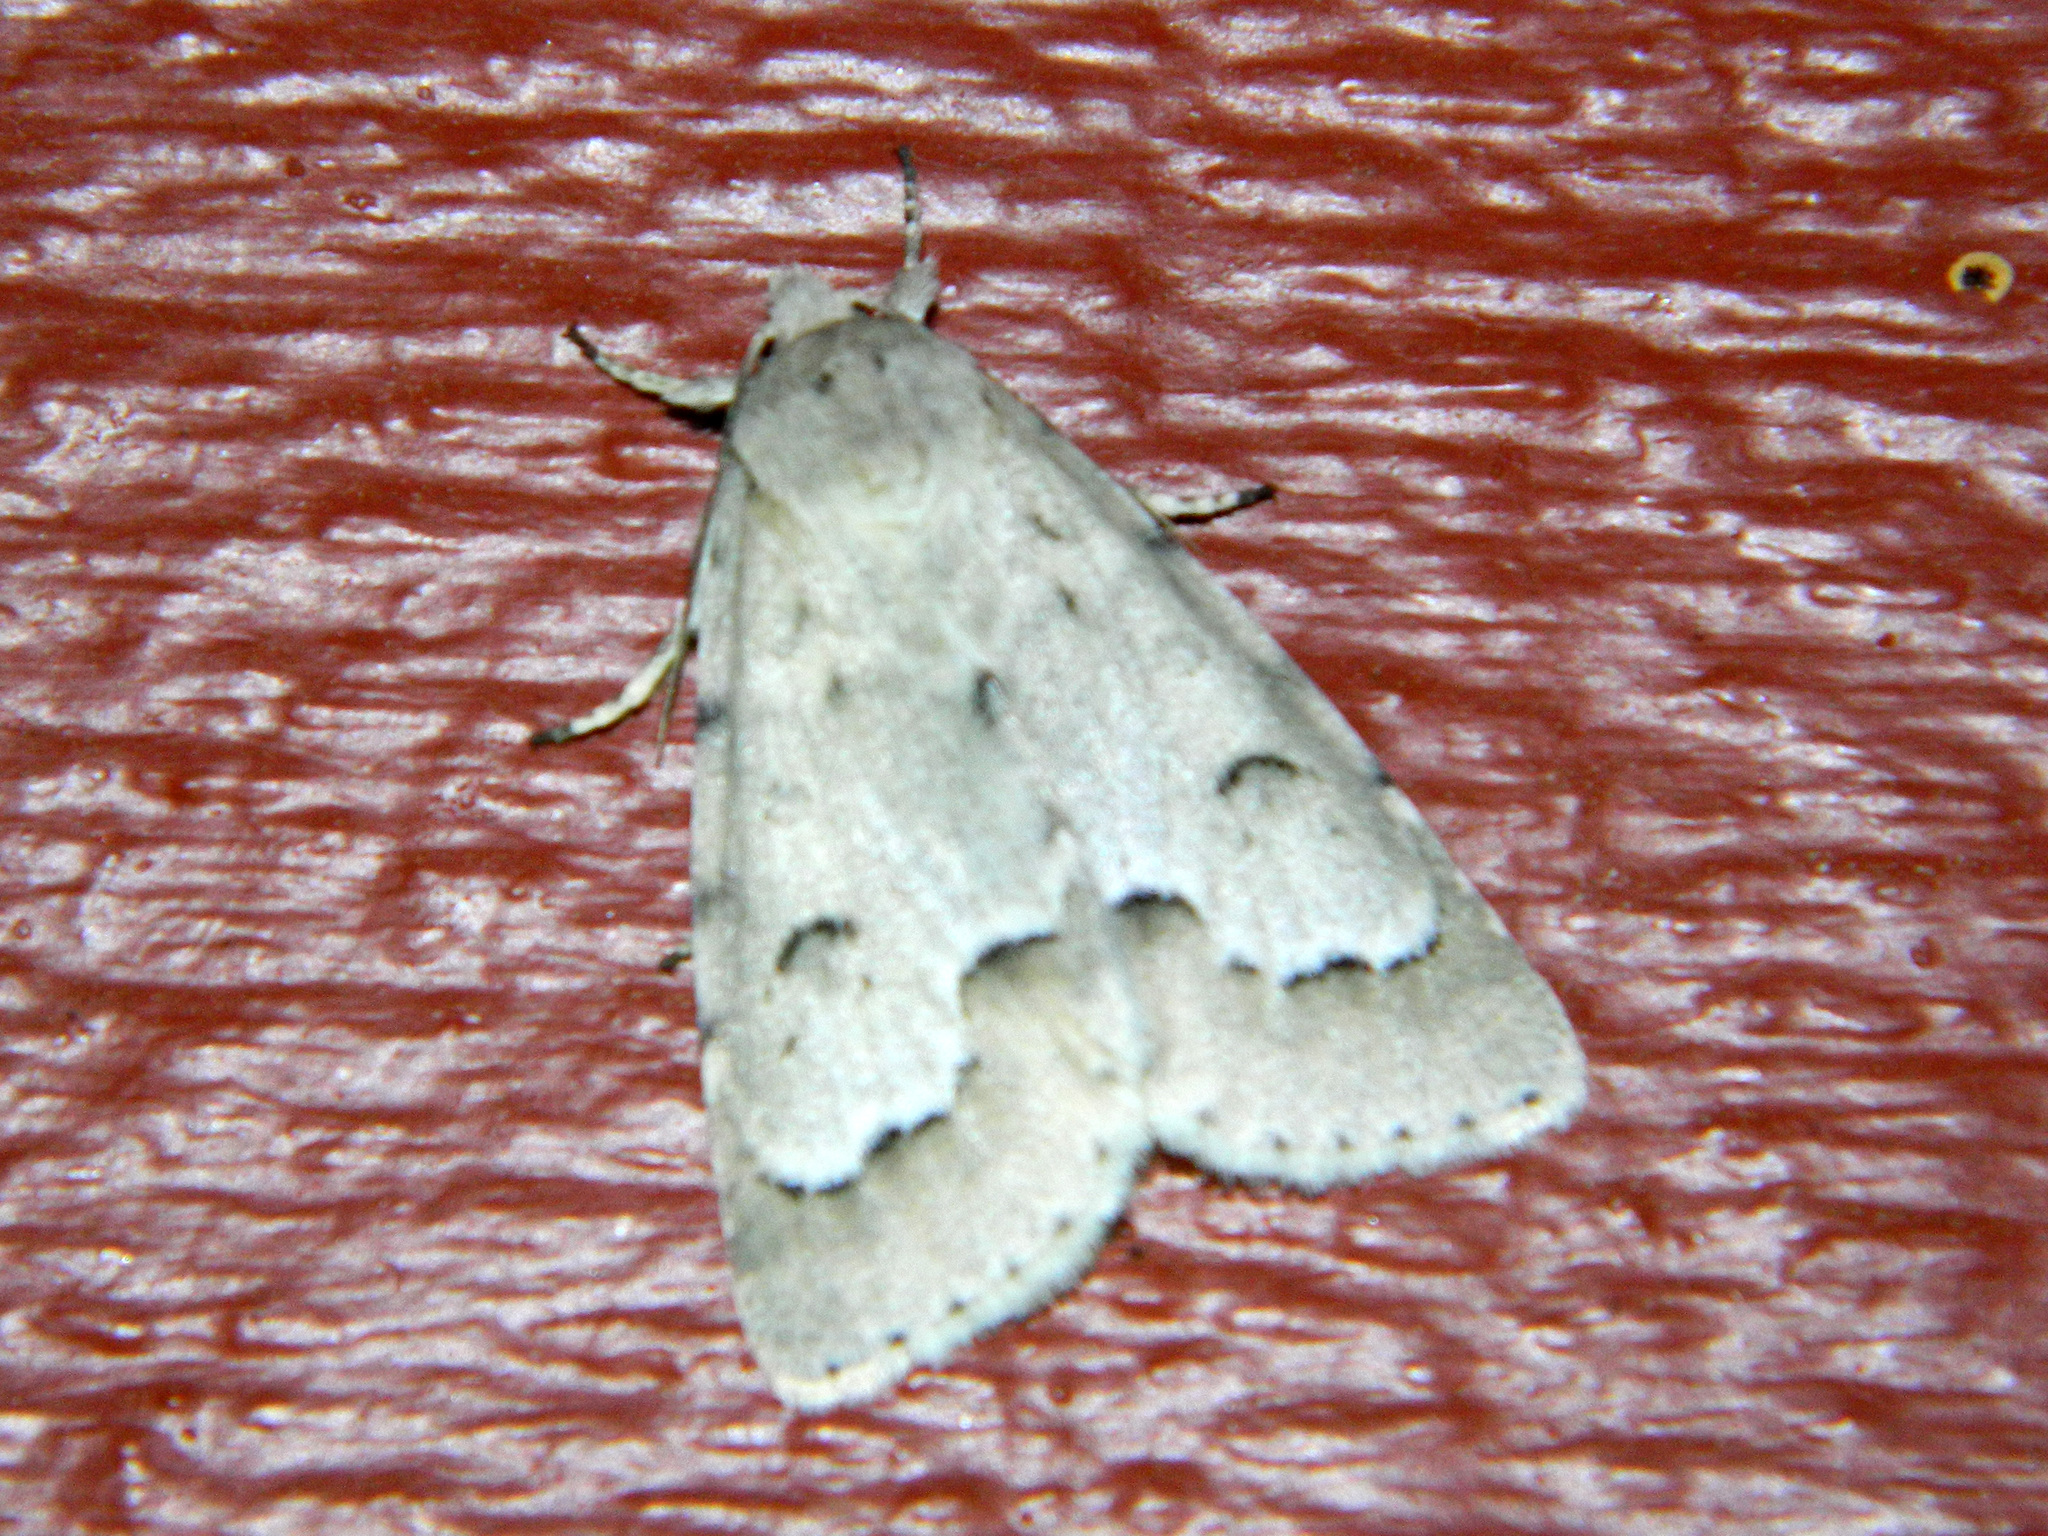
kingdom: Animalia
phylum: Arthropoda
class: Insecta
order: Lepidoptera
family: Noctuidae
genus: Acronicta
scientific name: Acronicta innotata
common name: Unmarked dagger
